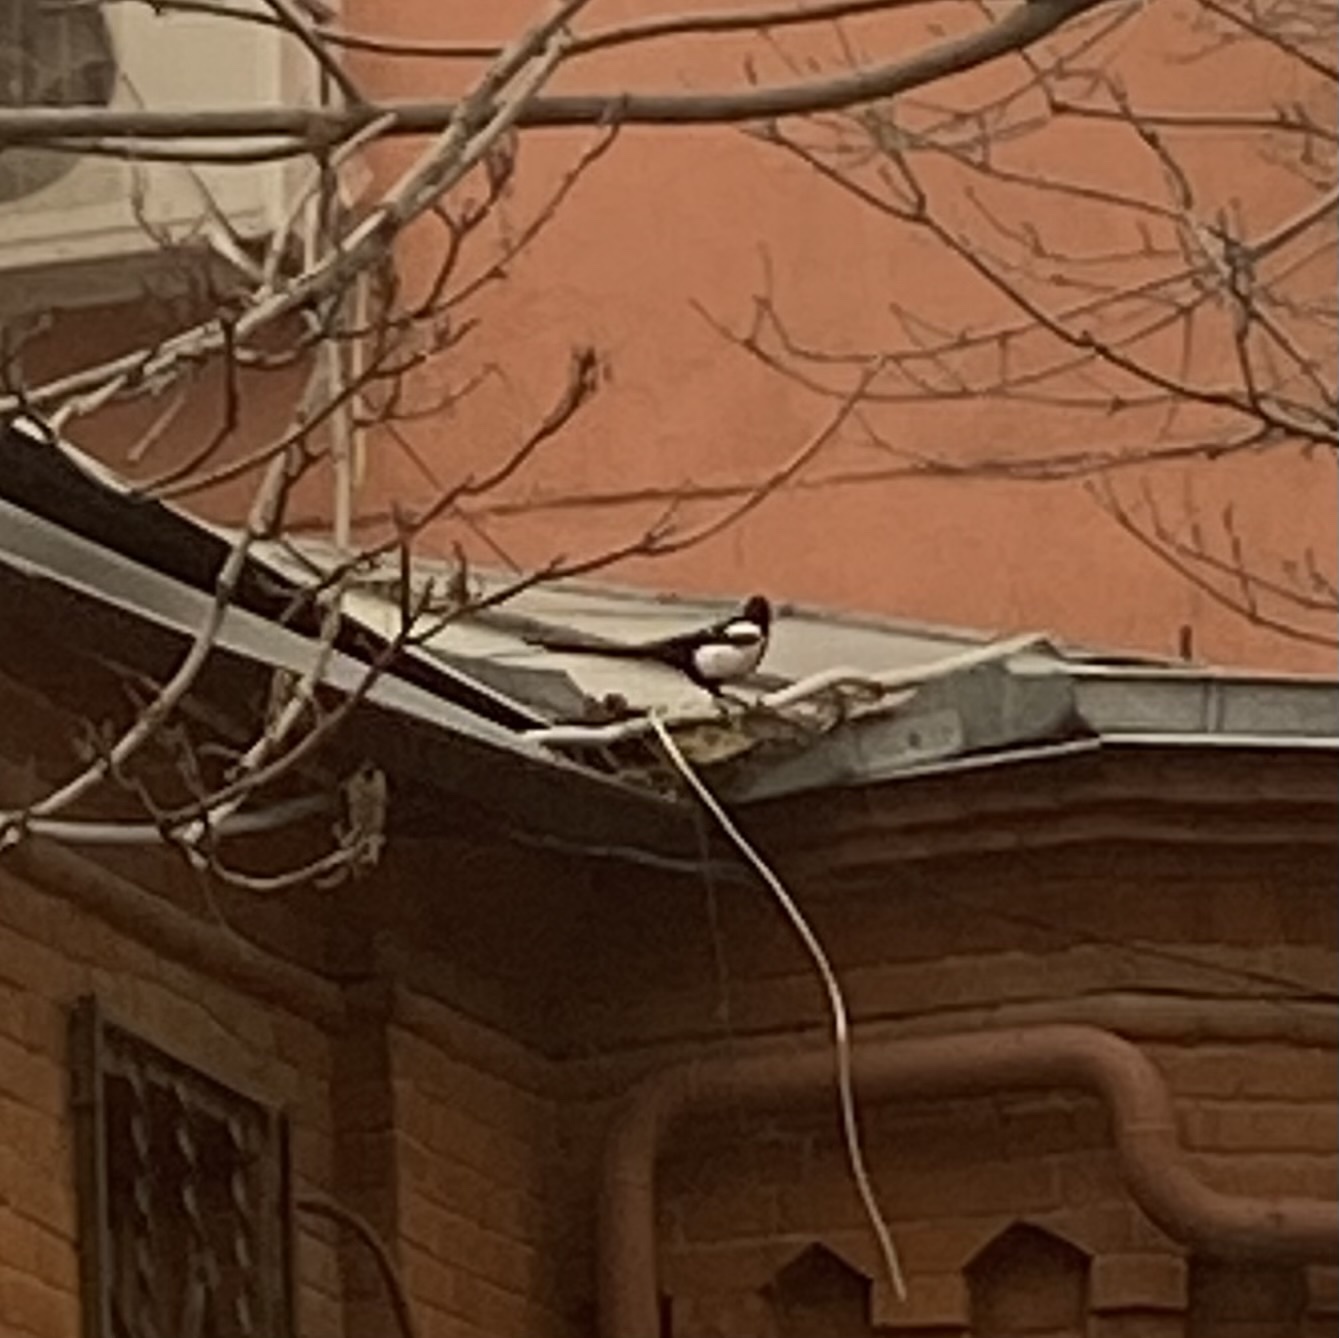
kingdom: Animalia
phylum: Chordata
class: Aves
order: Passeriformes
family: Corvidae
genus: Pica
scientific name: Pica pica
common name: Eurasian magpie
